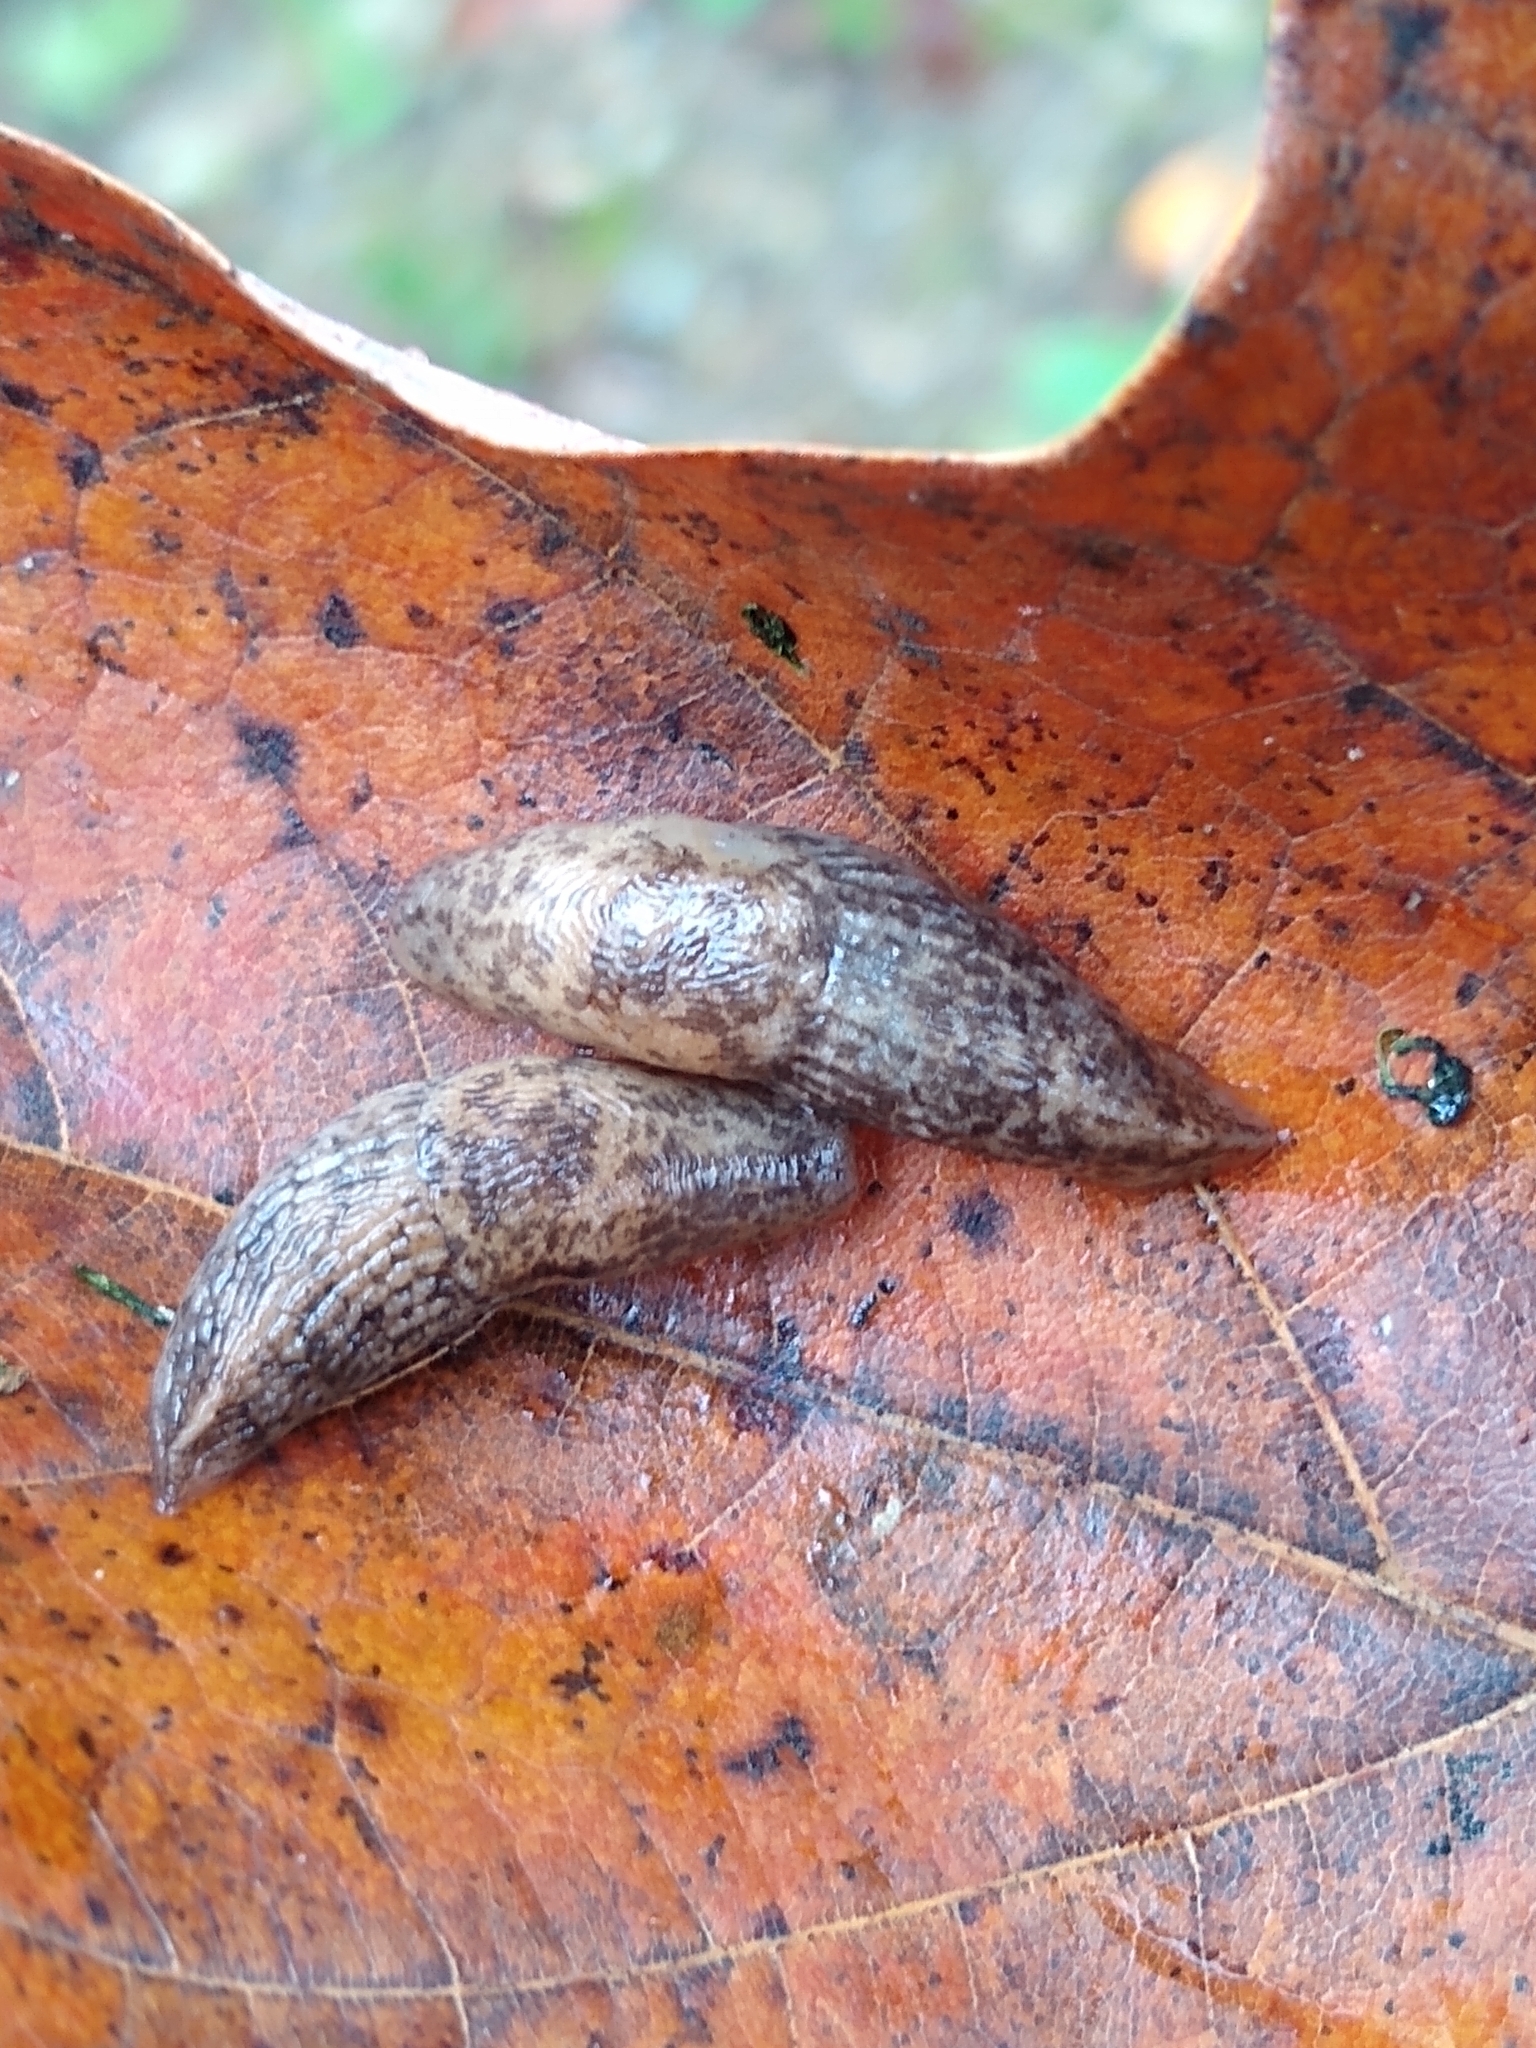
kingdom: Animalia
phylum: Mollusca
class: Gastropoda
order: Stylommatophora
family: Agriolimacidae
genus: Deroceras
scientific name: Deroceras reticulatum
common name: Gray field slug
